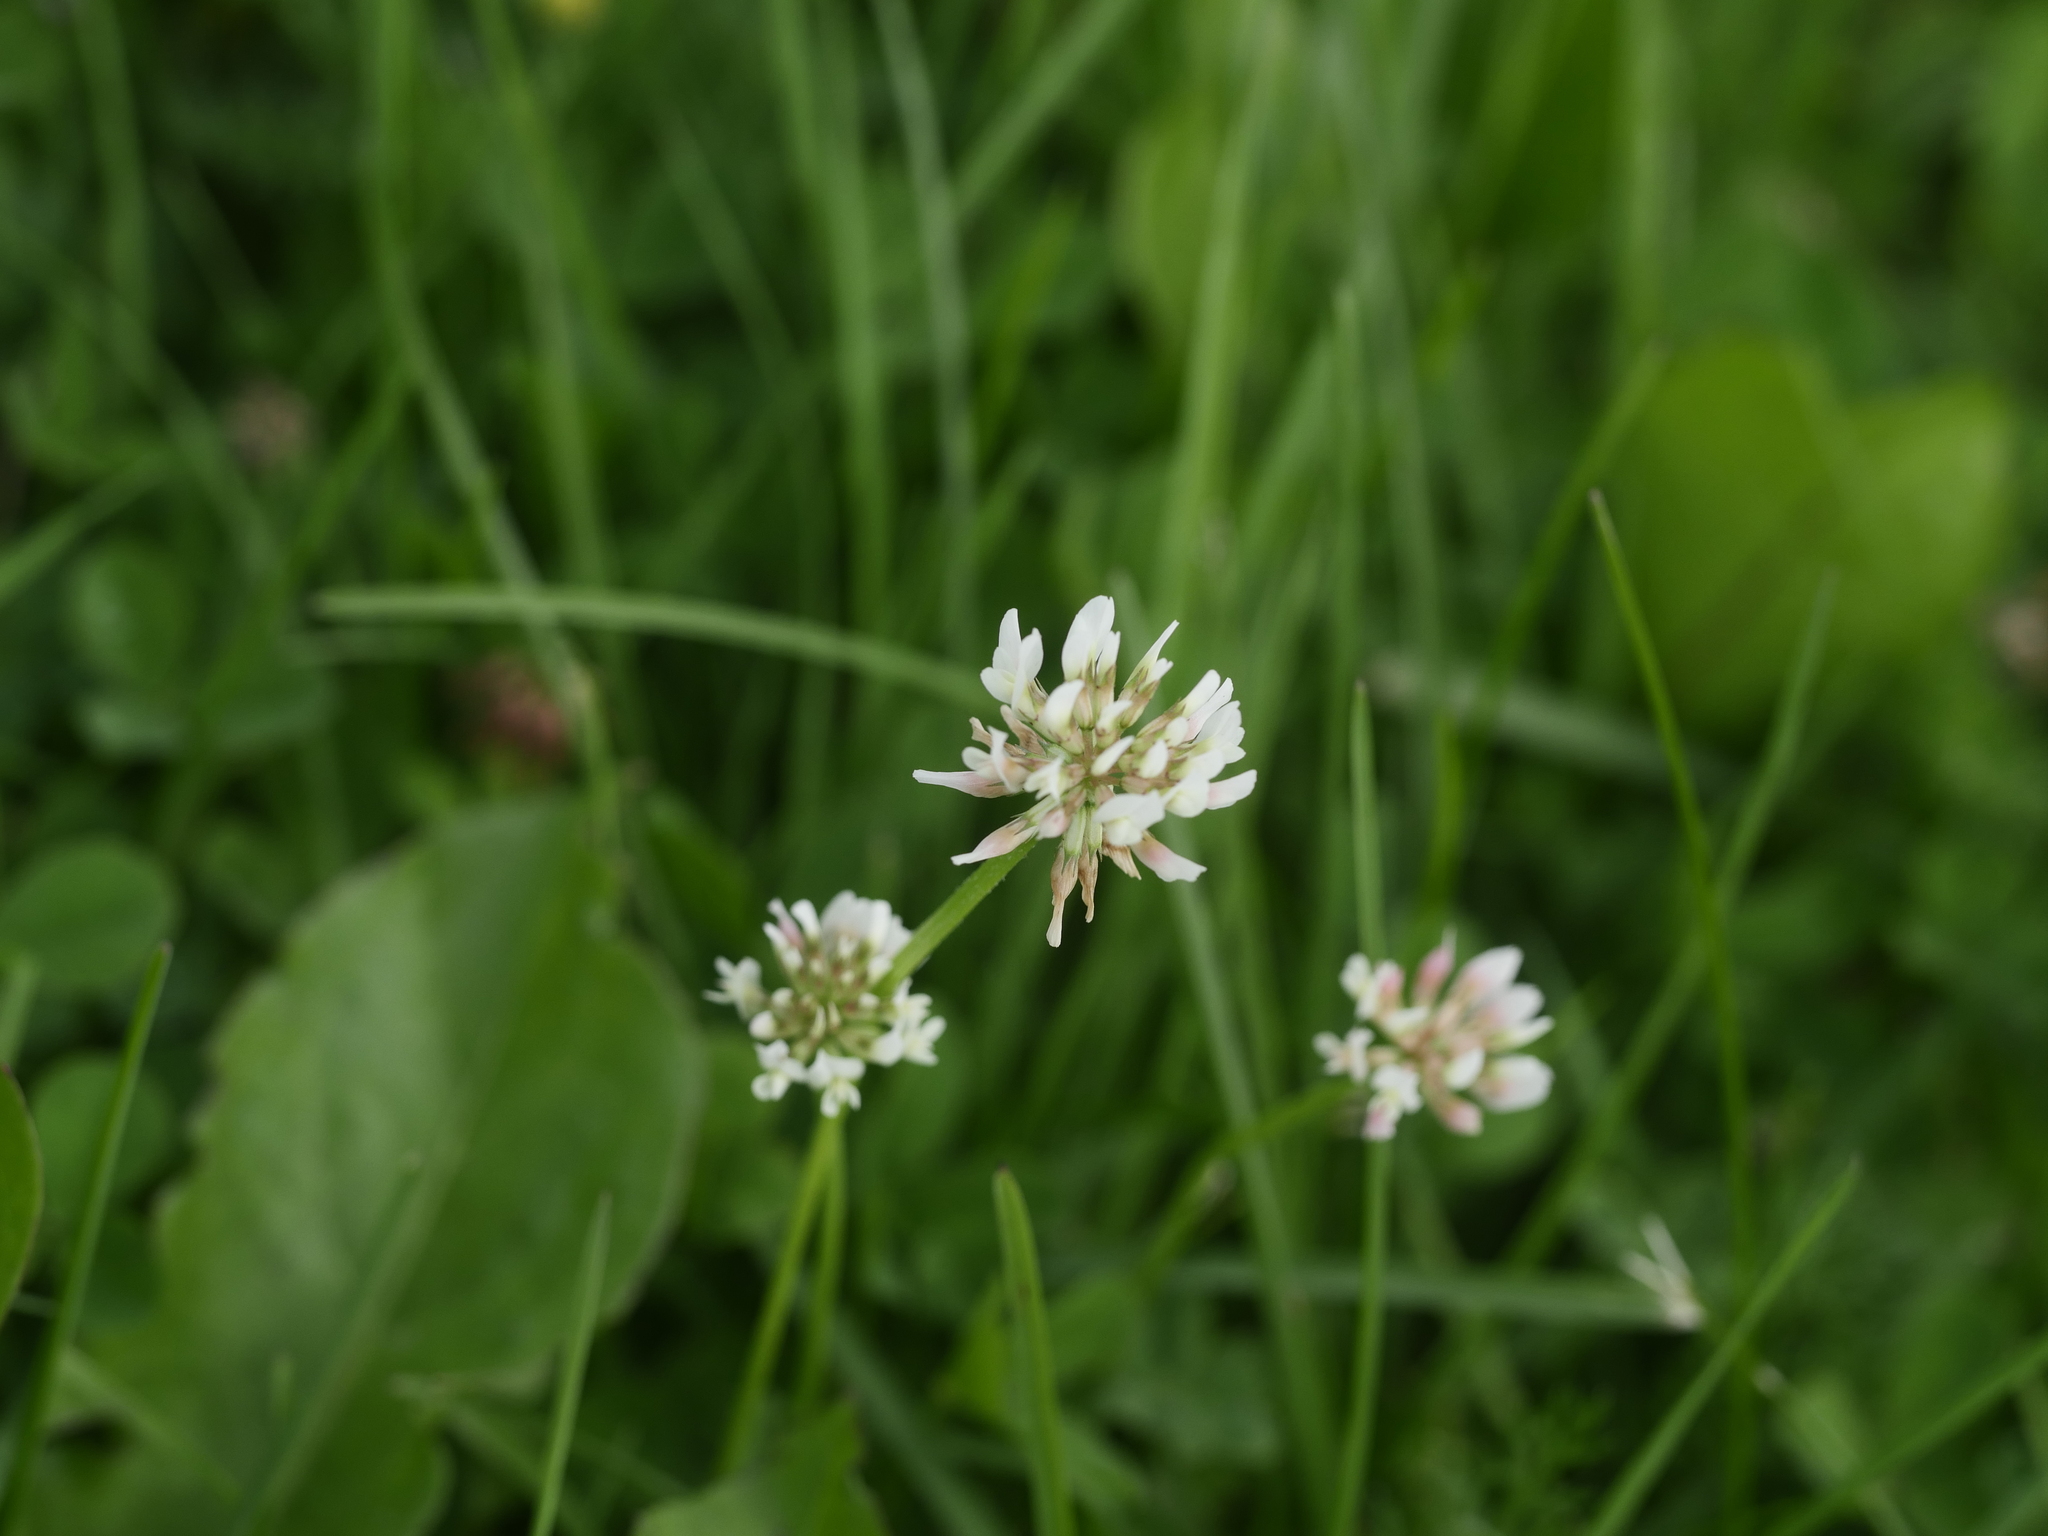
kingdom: Plantae
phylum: Tracheophyta
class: Magnoliopsida
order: Fabales
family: Fabaceae
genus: Trifolium
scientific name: Trifolium repens
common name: White clover
